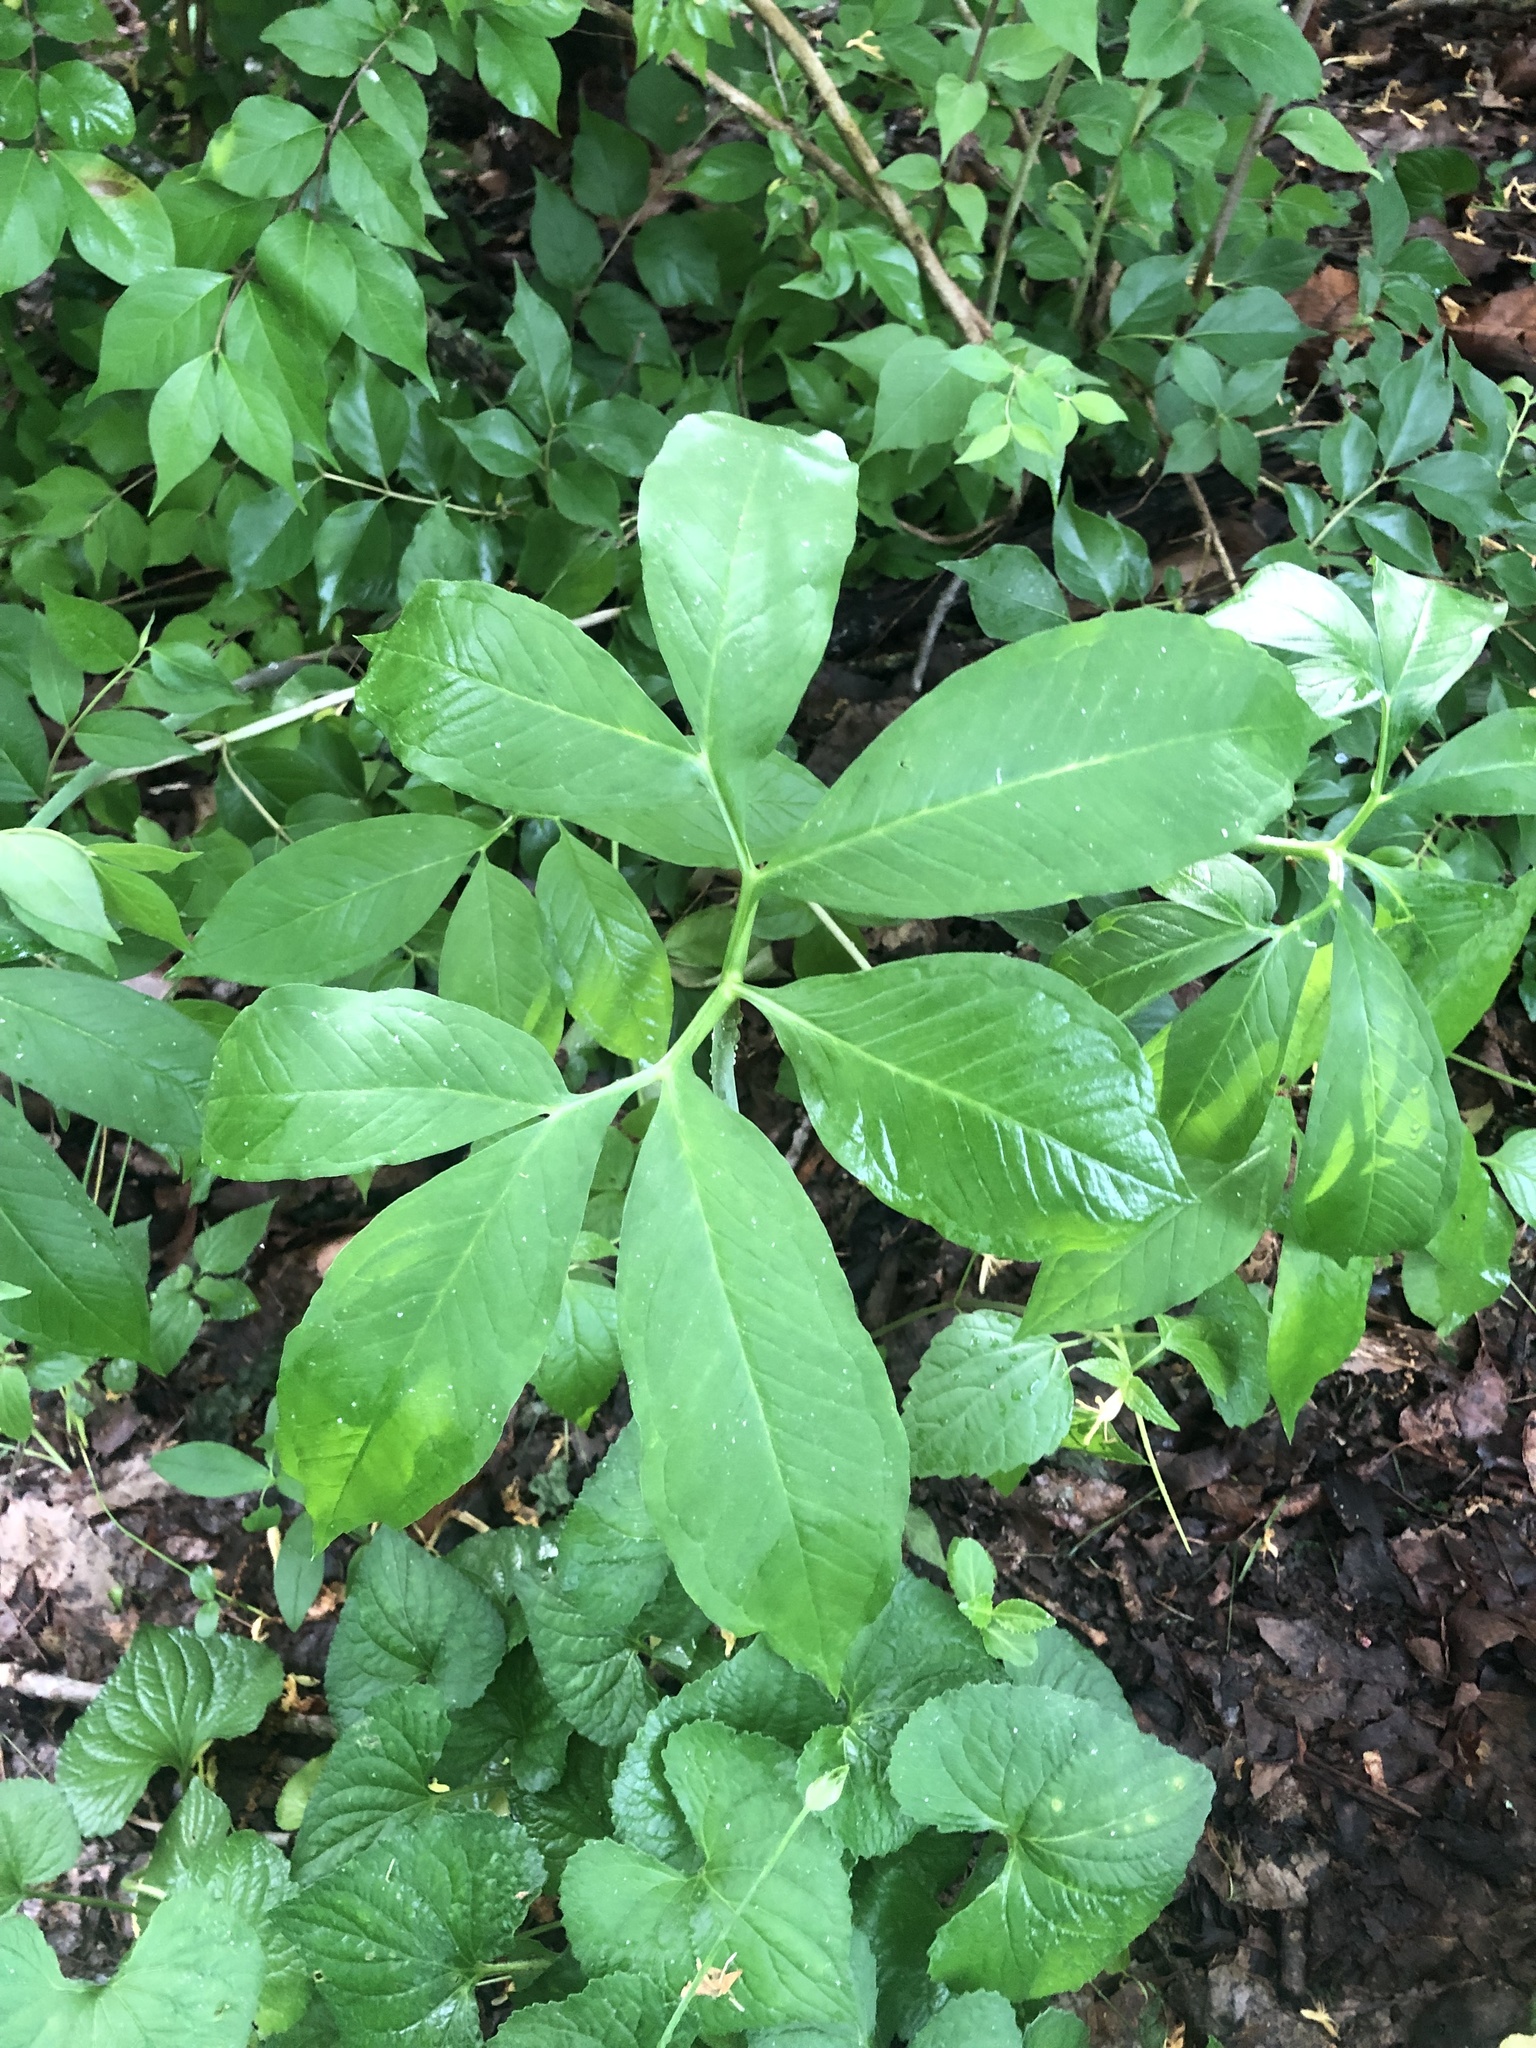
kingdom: Plantae
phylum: Tracheophyta
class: Liliopsida
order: Alismatales
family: Araceae
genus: Arisaema
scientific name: Arisaema dracontium
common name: Dragon-arum
